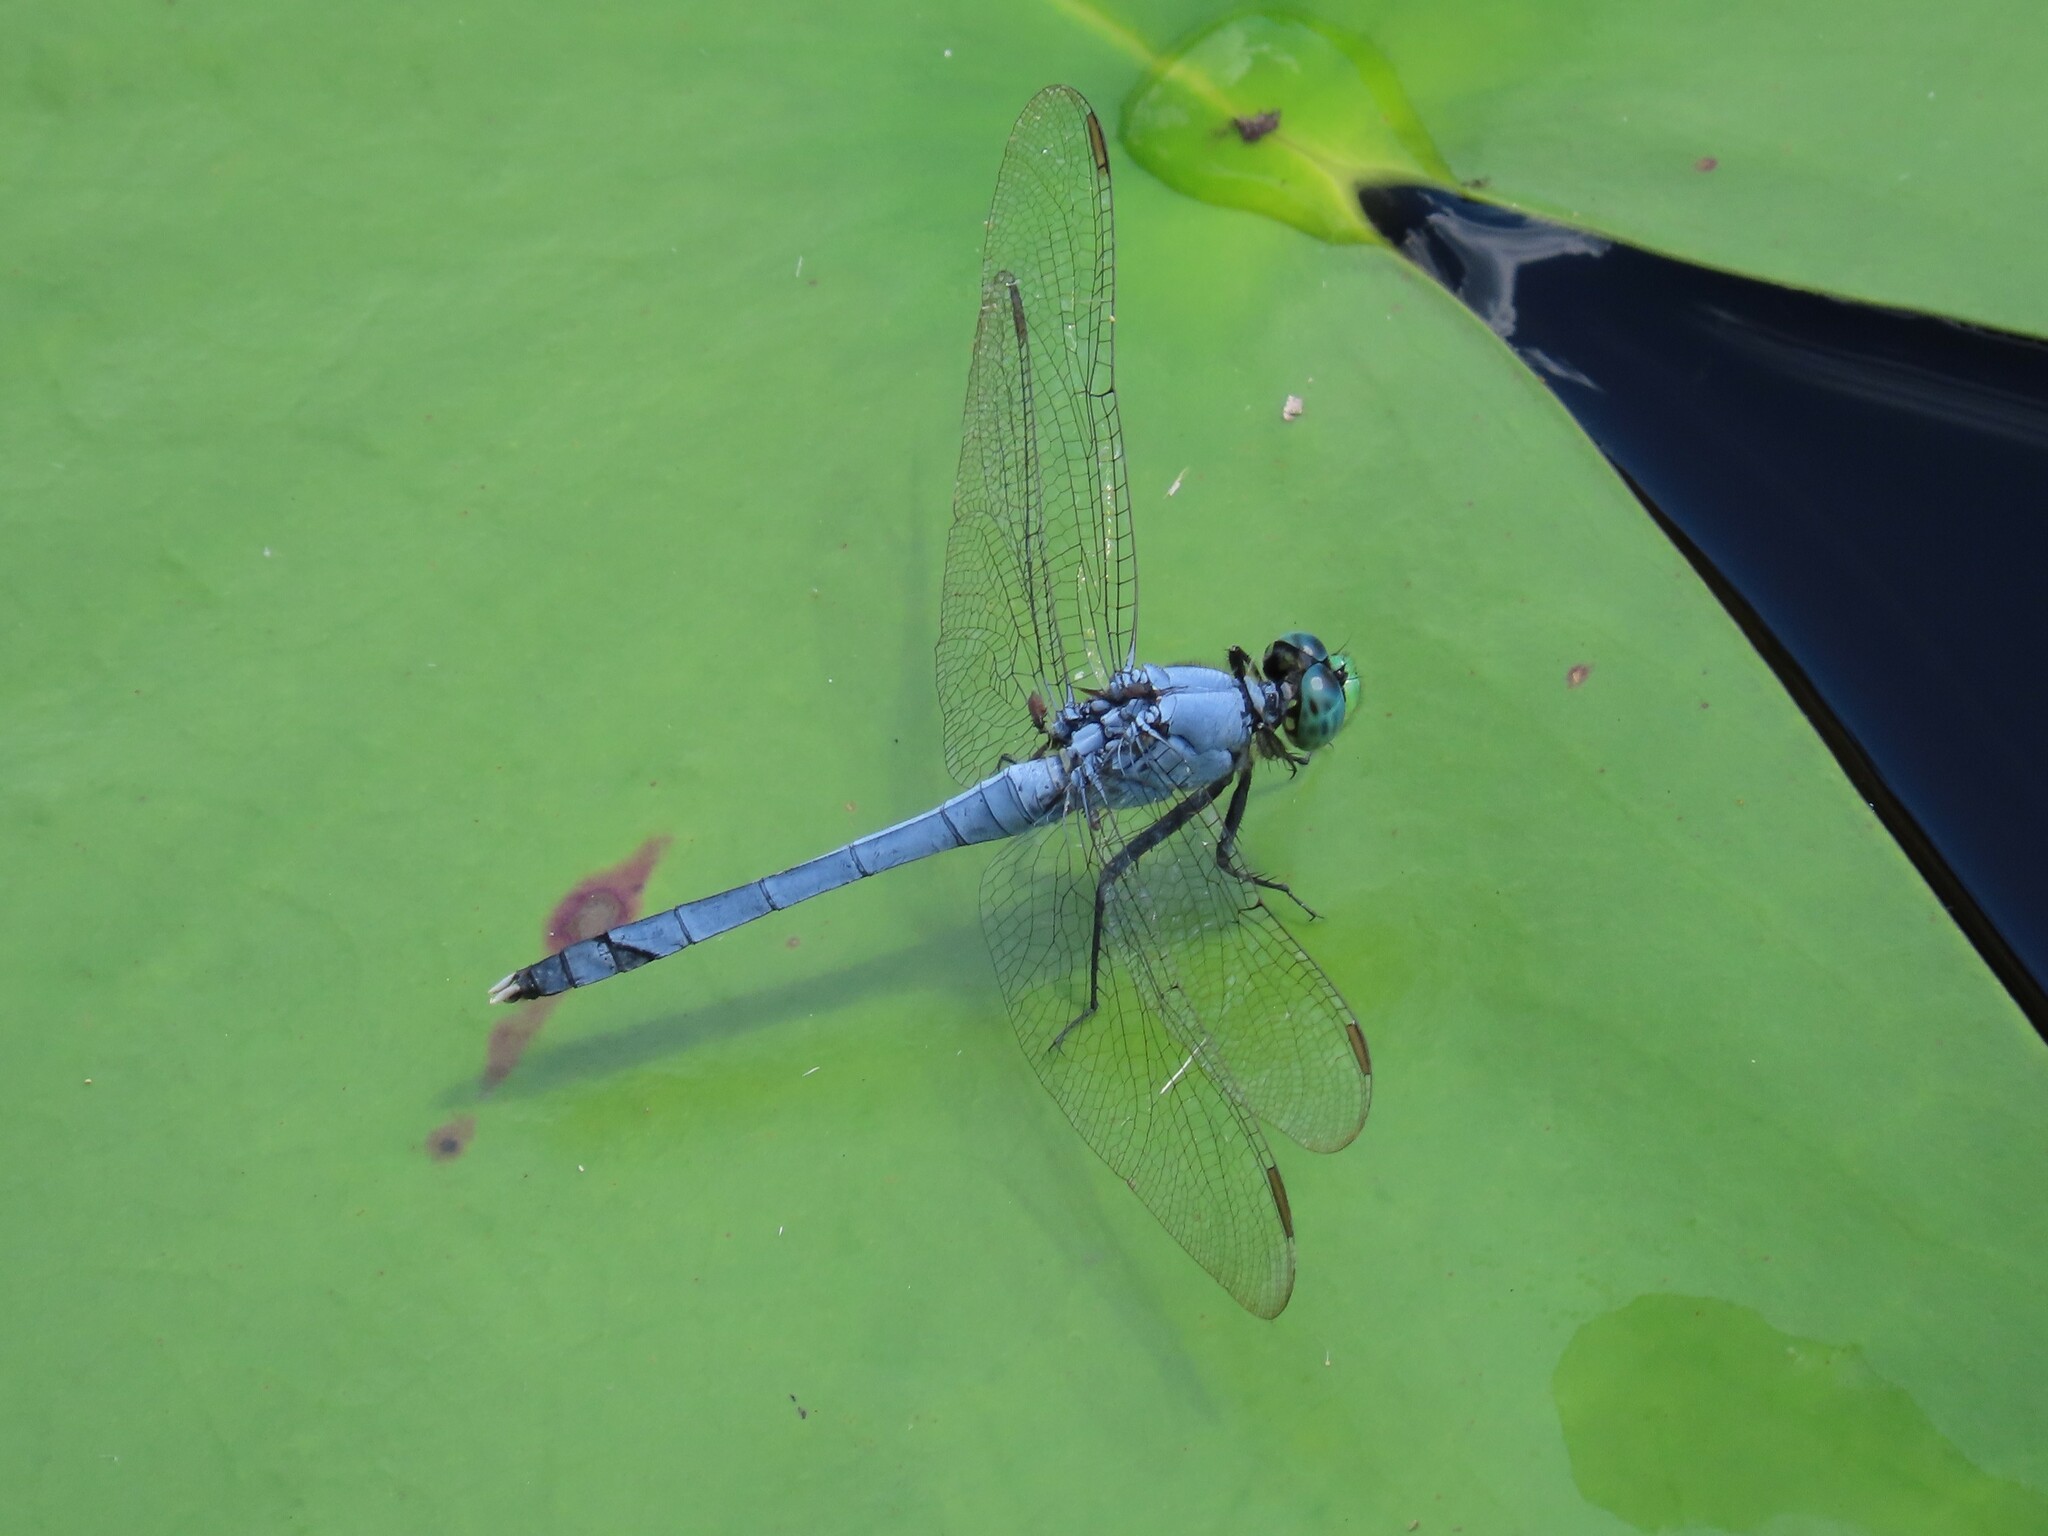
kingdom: Animalia
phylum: Arthropoda
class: Insecta
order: Odonata
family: Libellulidae
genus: Erythemis
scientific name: Erythemis simplicicollis
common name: Eastern pondhawk
